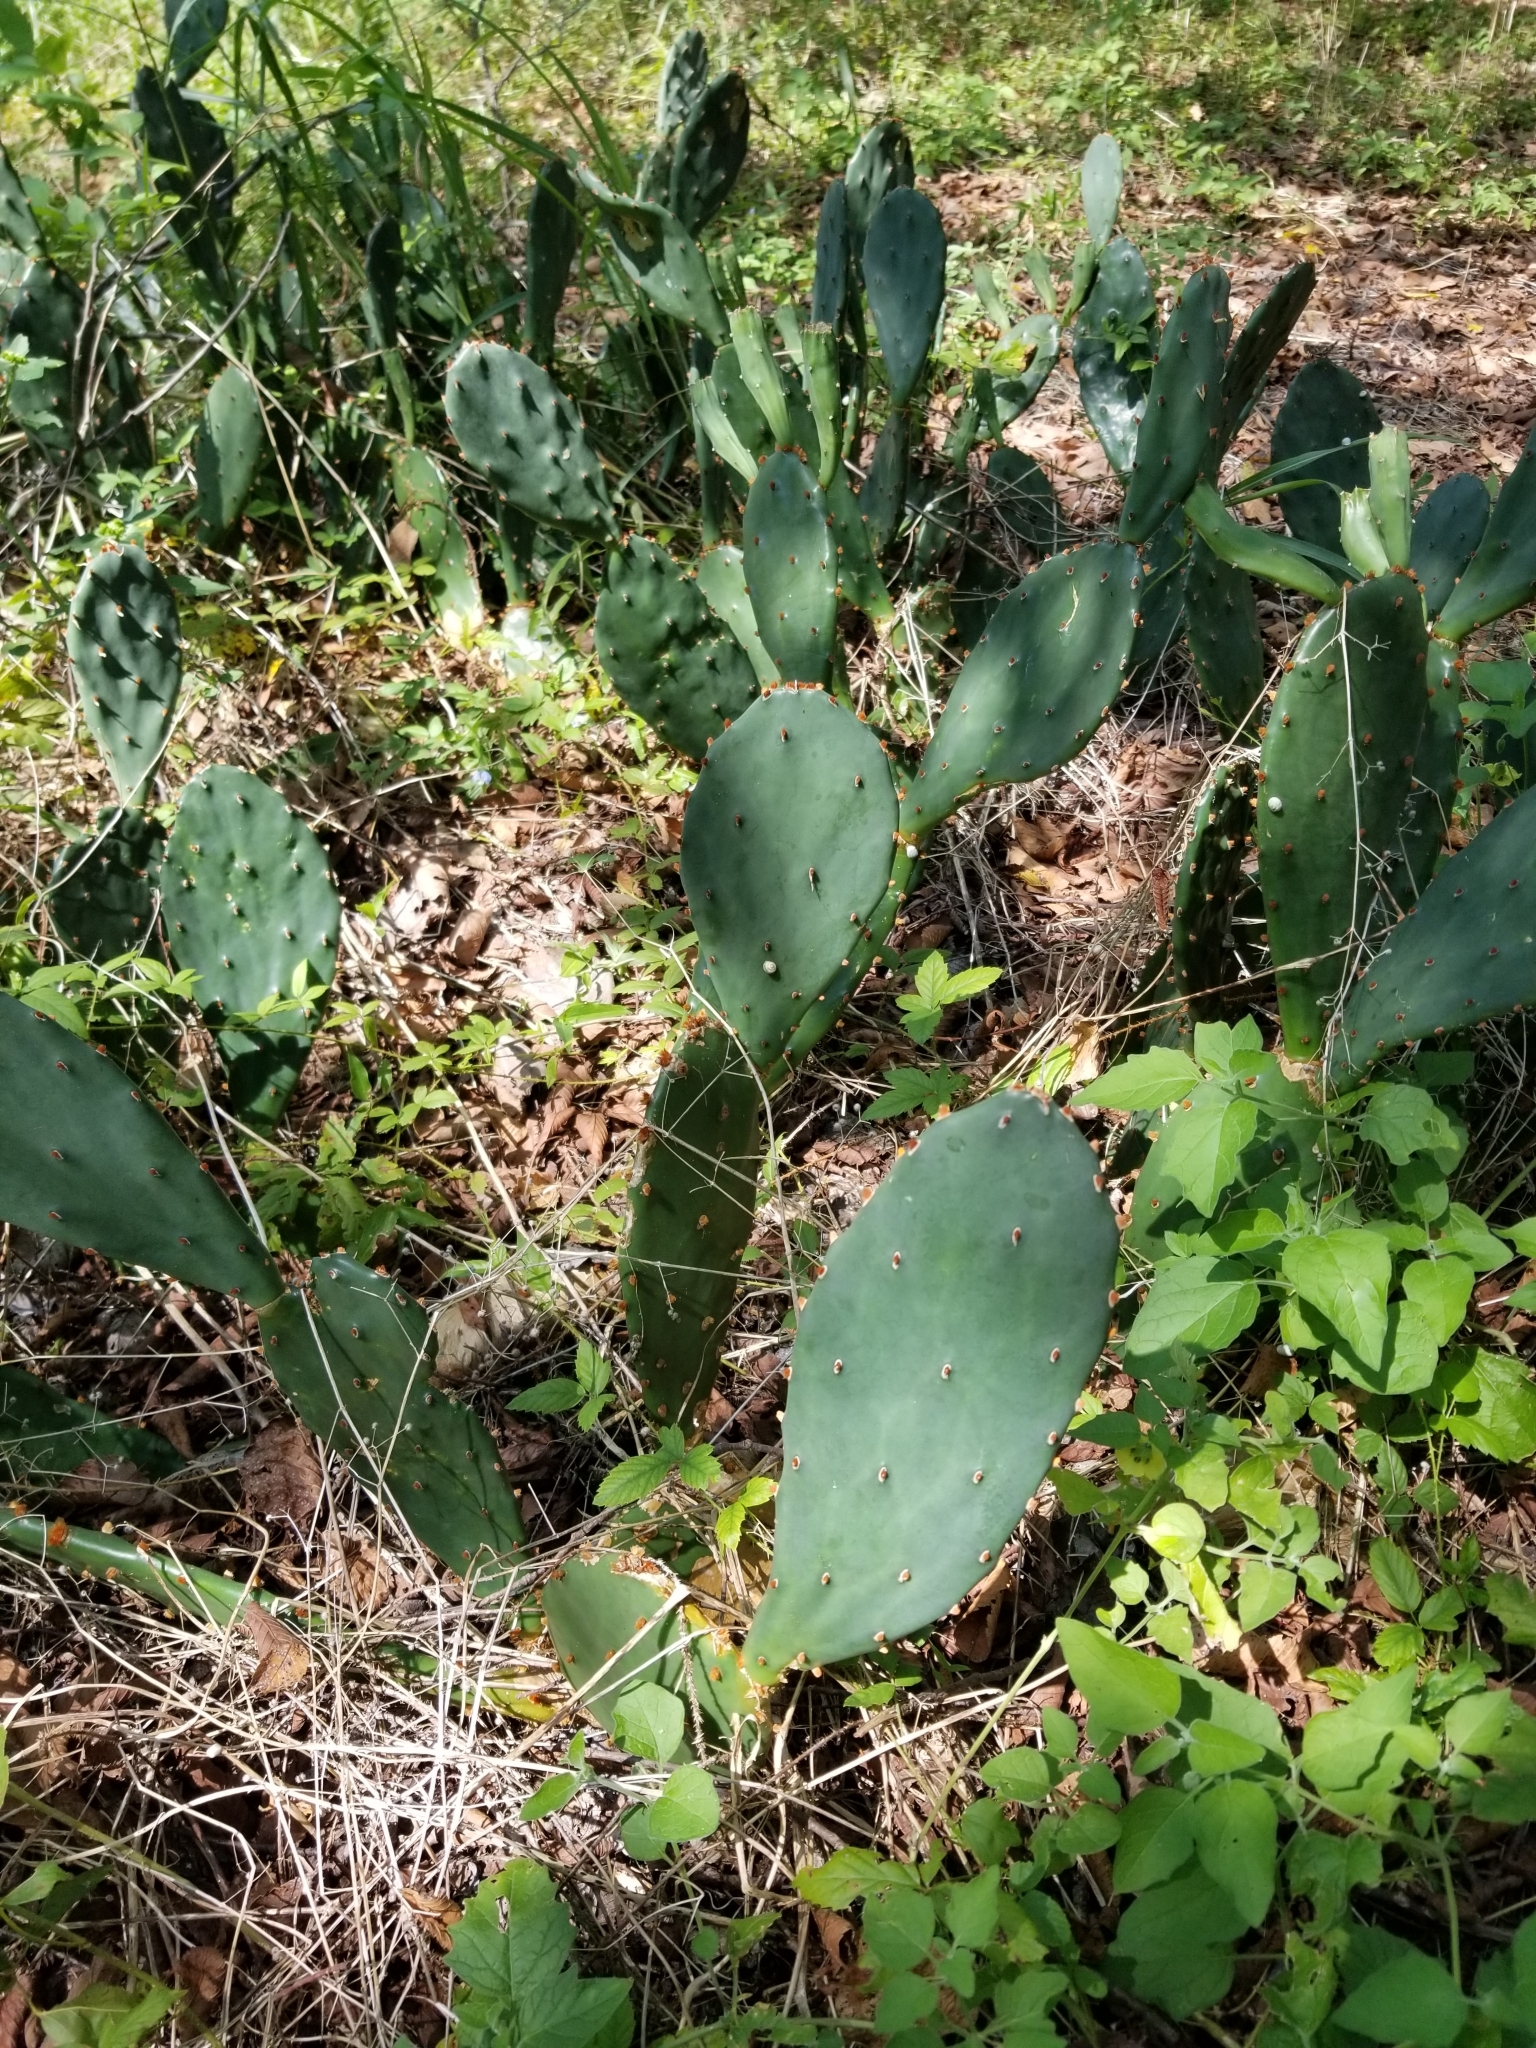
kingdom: Plantae
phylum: Tracheophyta
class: Magnoliopsida
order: Caryophyllales
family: Cactaceae
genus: Opuntia
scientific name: Opuntia macrorhiza
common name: Grassland pricklypear
